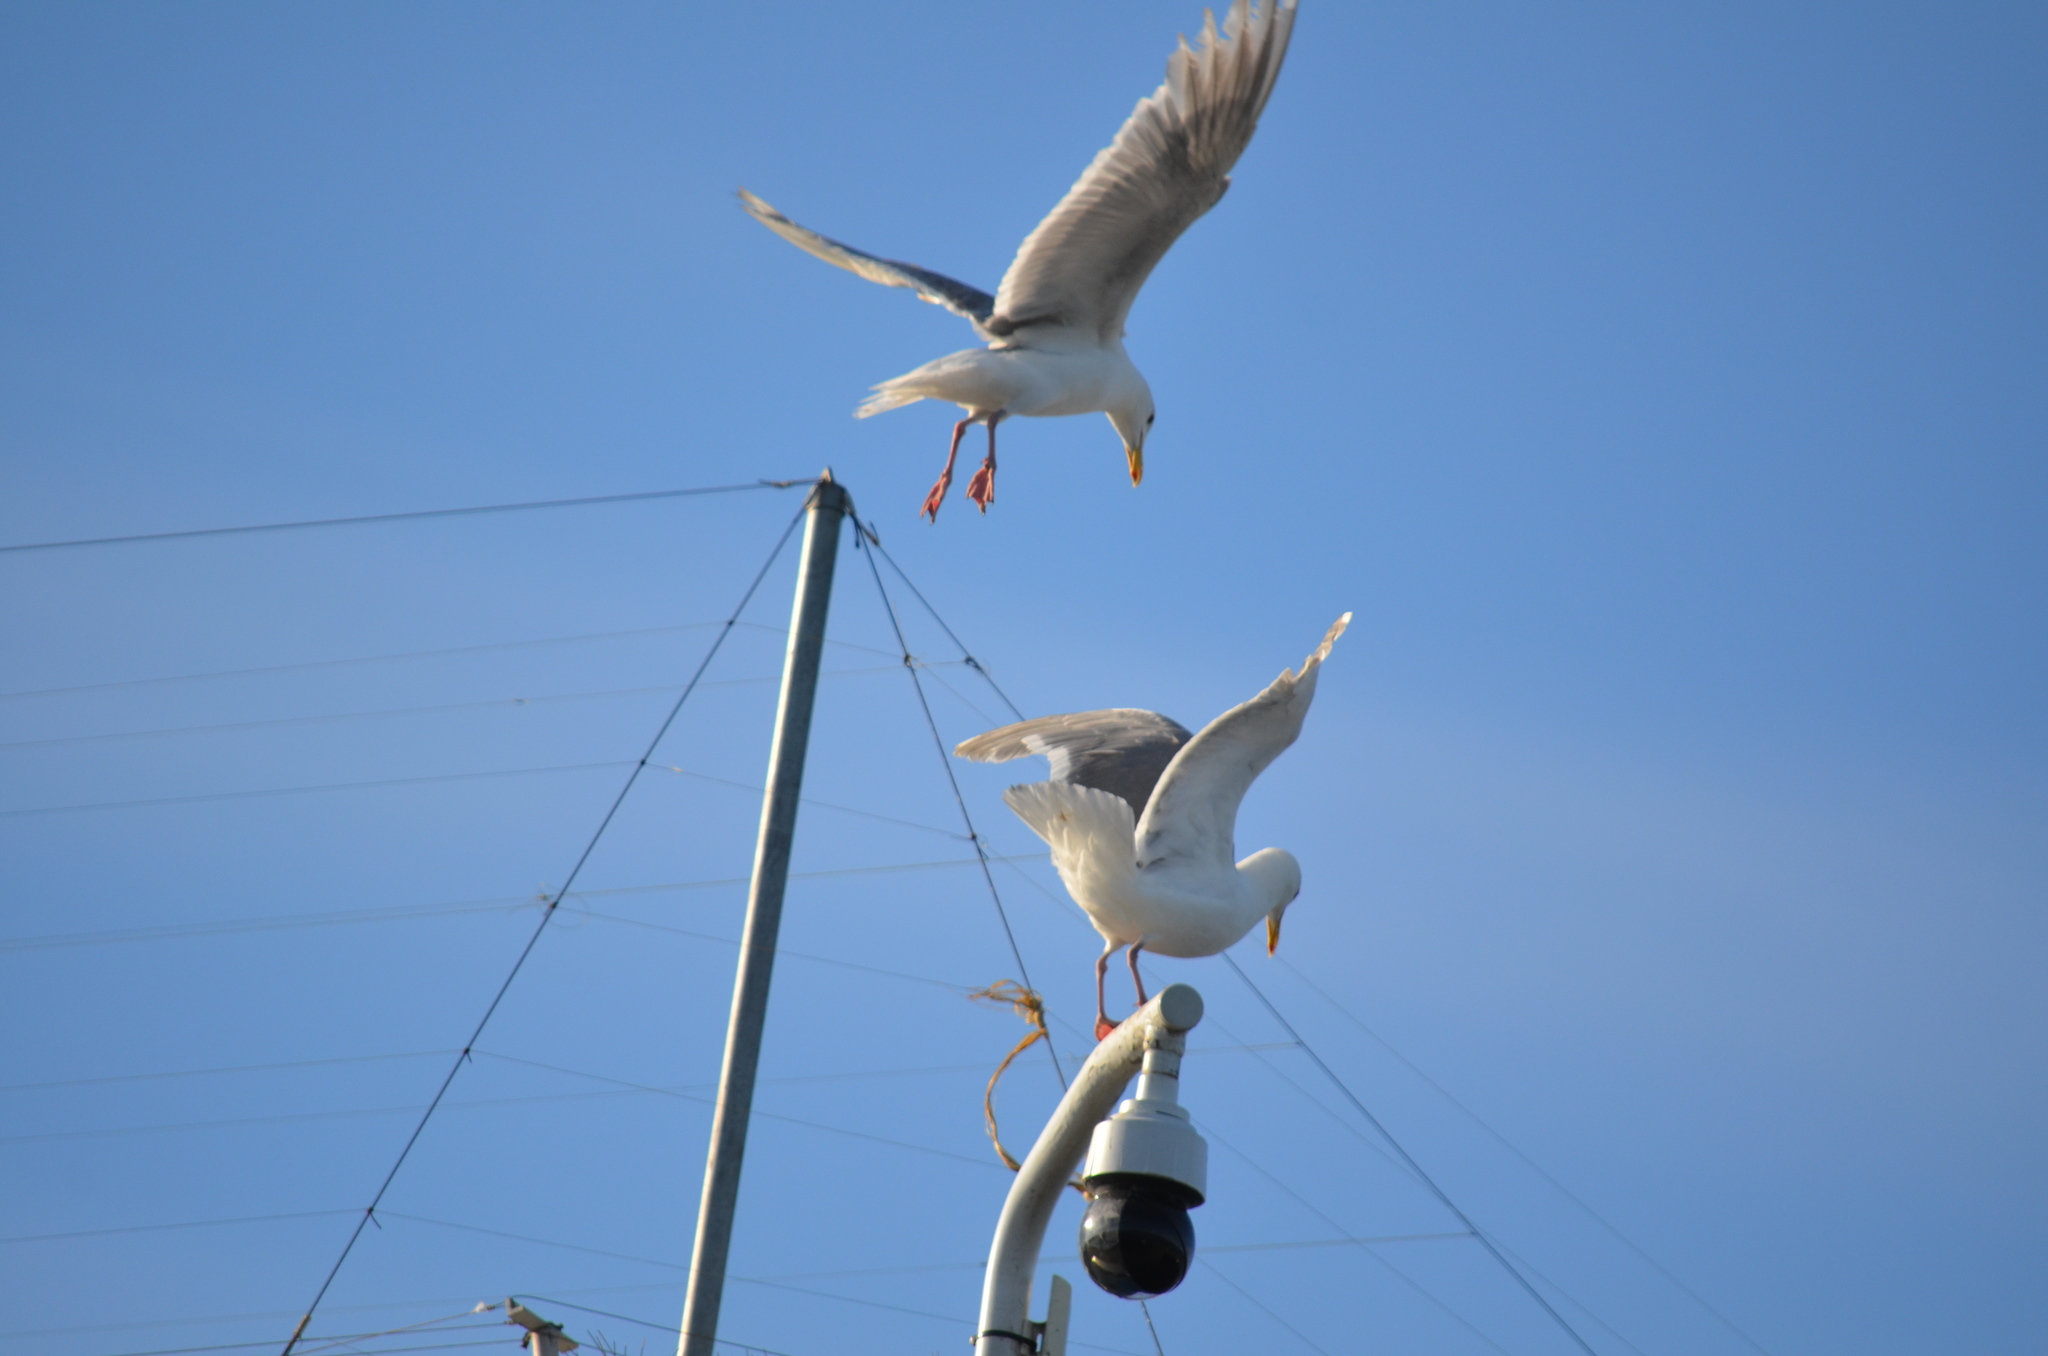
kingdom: Animalia
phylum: Chordata
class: Aves
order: Charadriiformes
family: Laridae
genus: Larus
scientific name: Larus glaucescens
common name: Glaucous-winged gull
